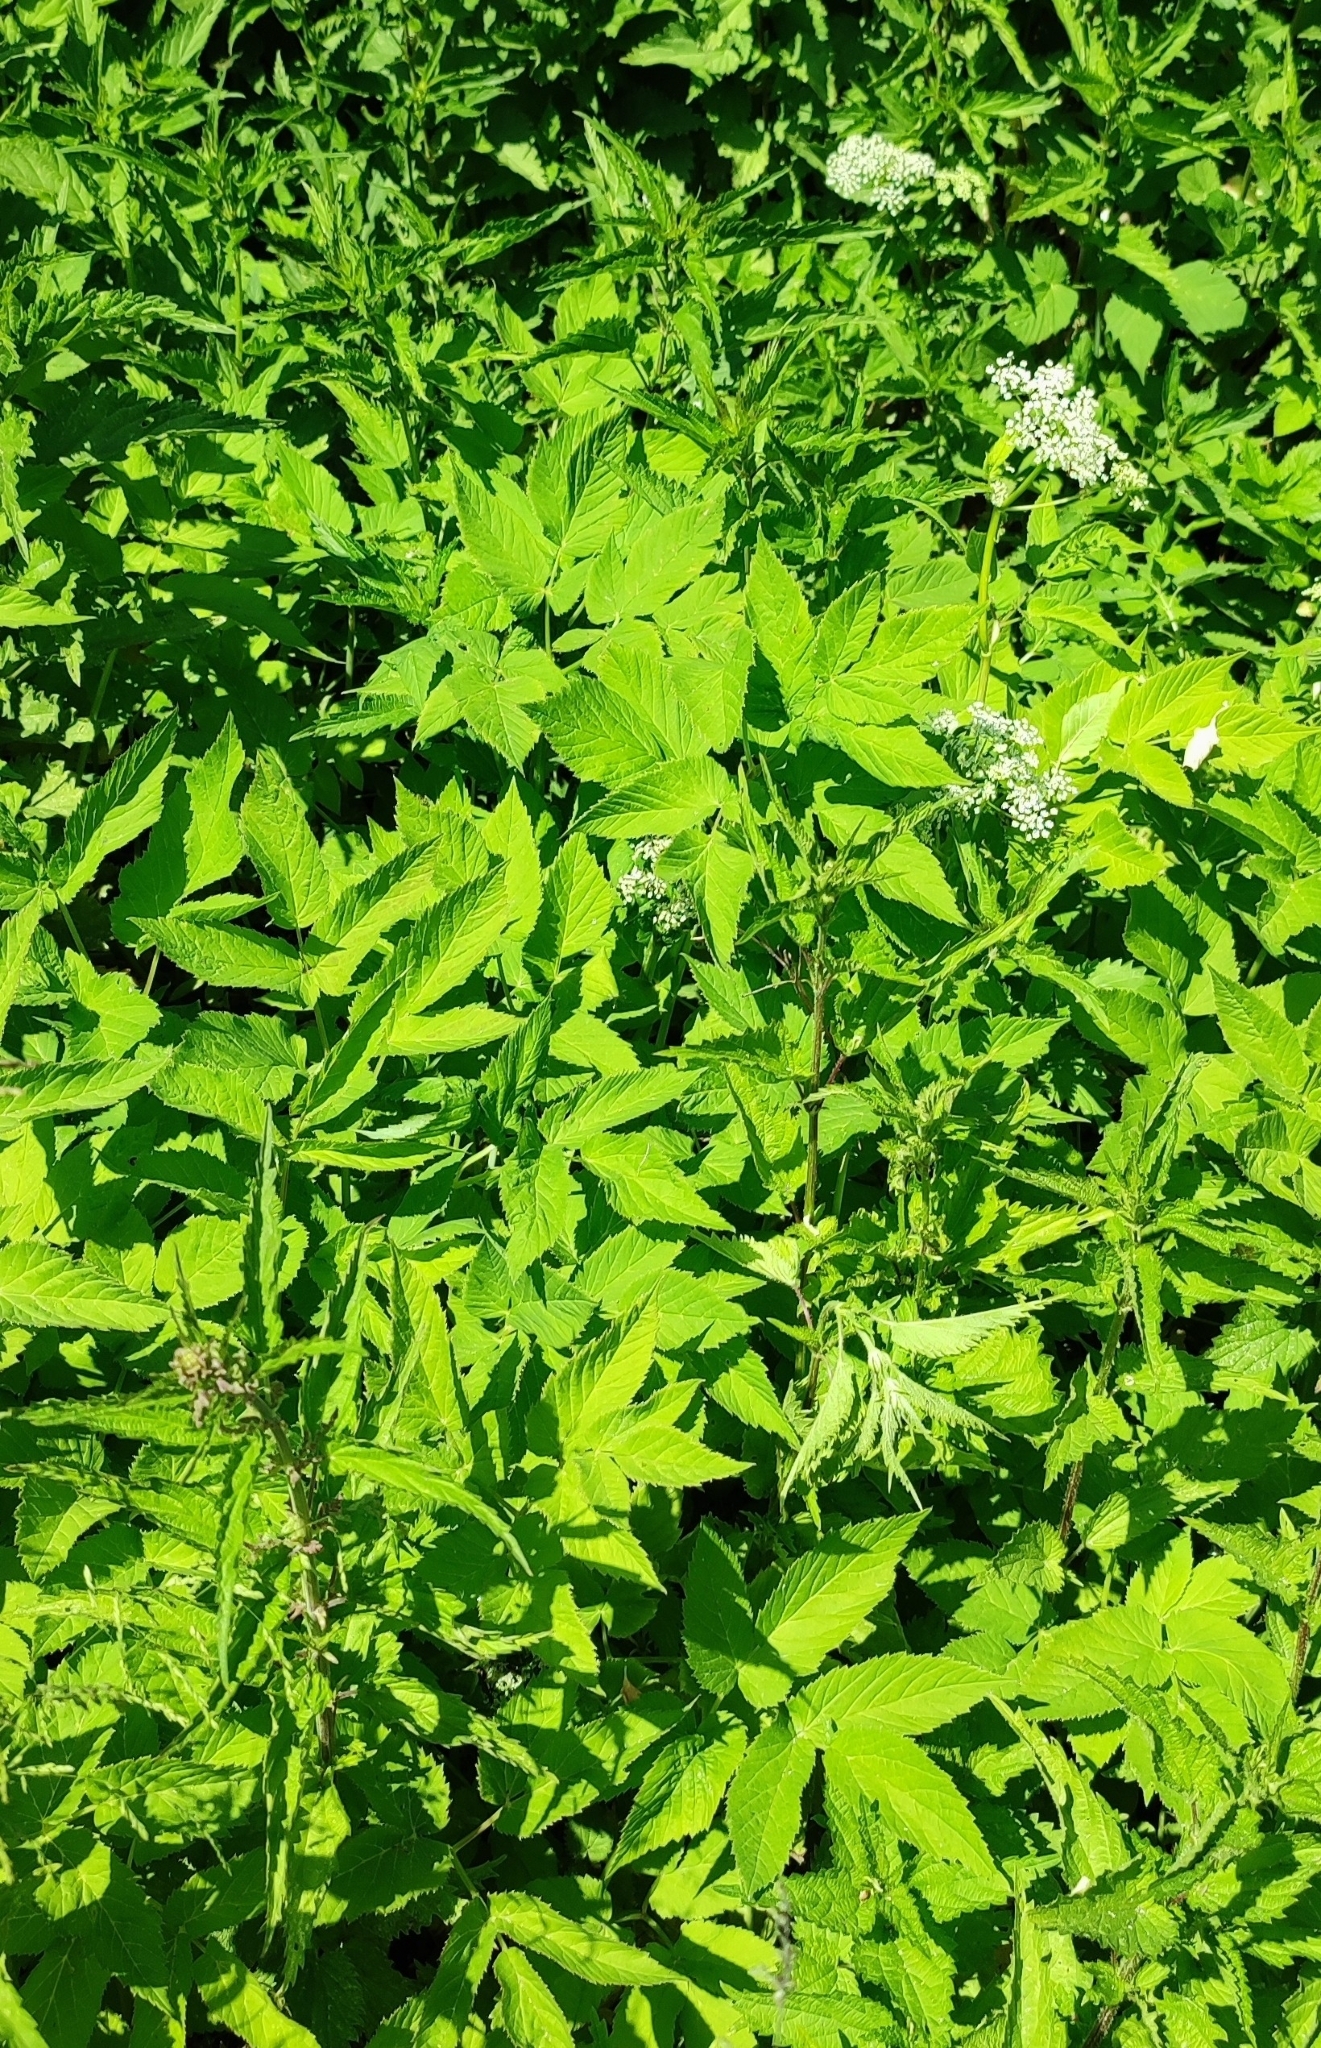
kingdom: Plantae
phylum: Tracheophyta
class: Magnoliopsida
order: Apiales
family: Apiaceae
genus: Aegopodium
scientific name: Aegopodium podagraria
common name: Ground-elder
